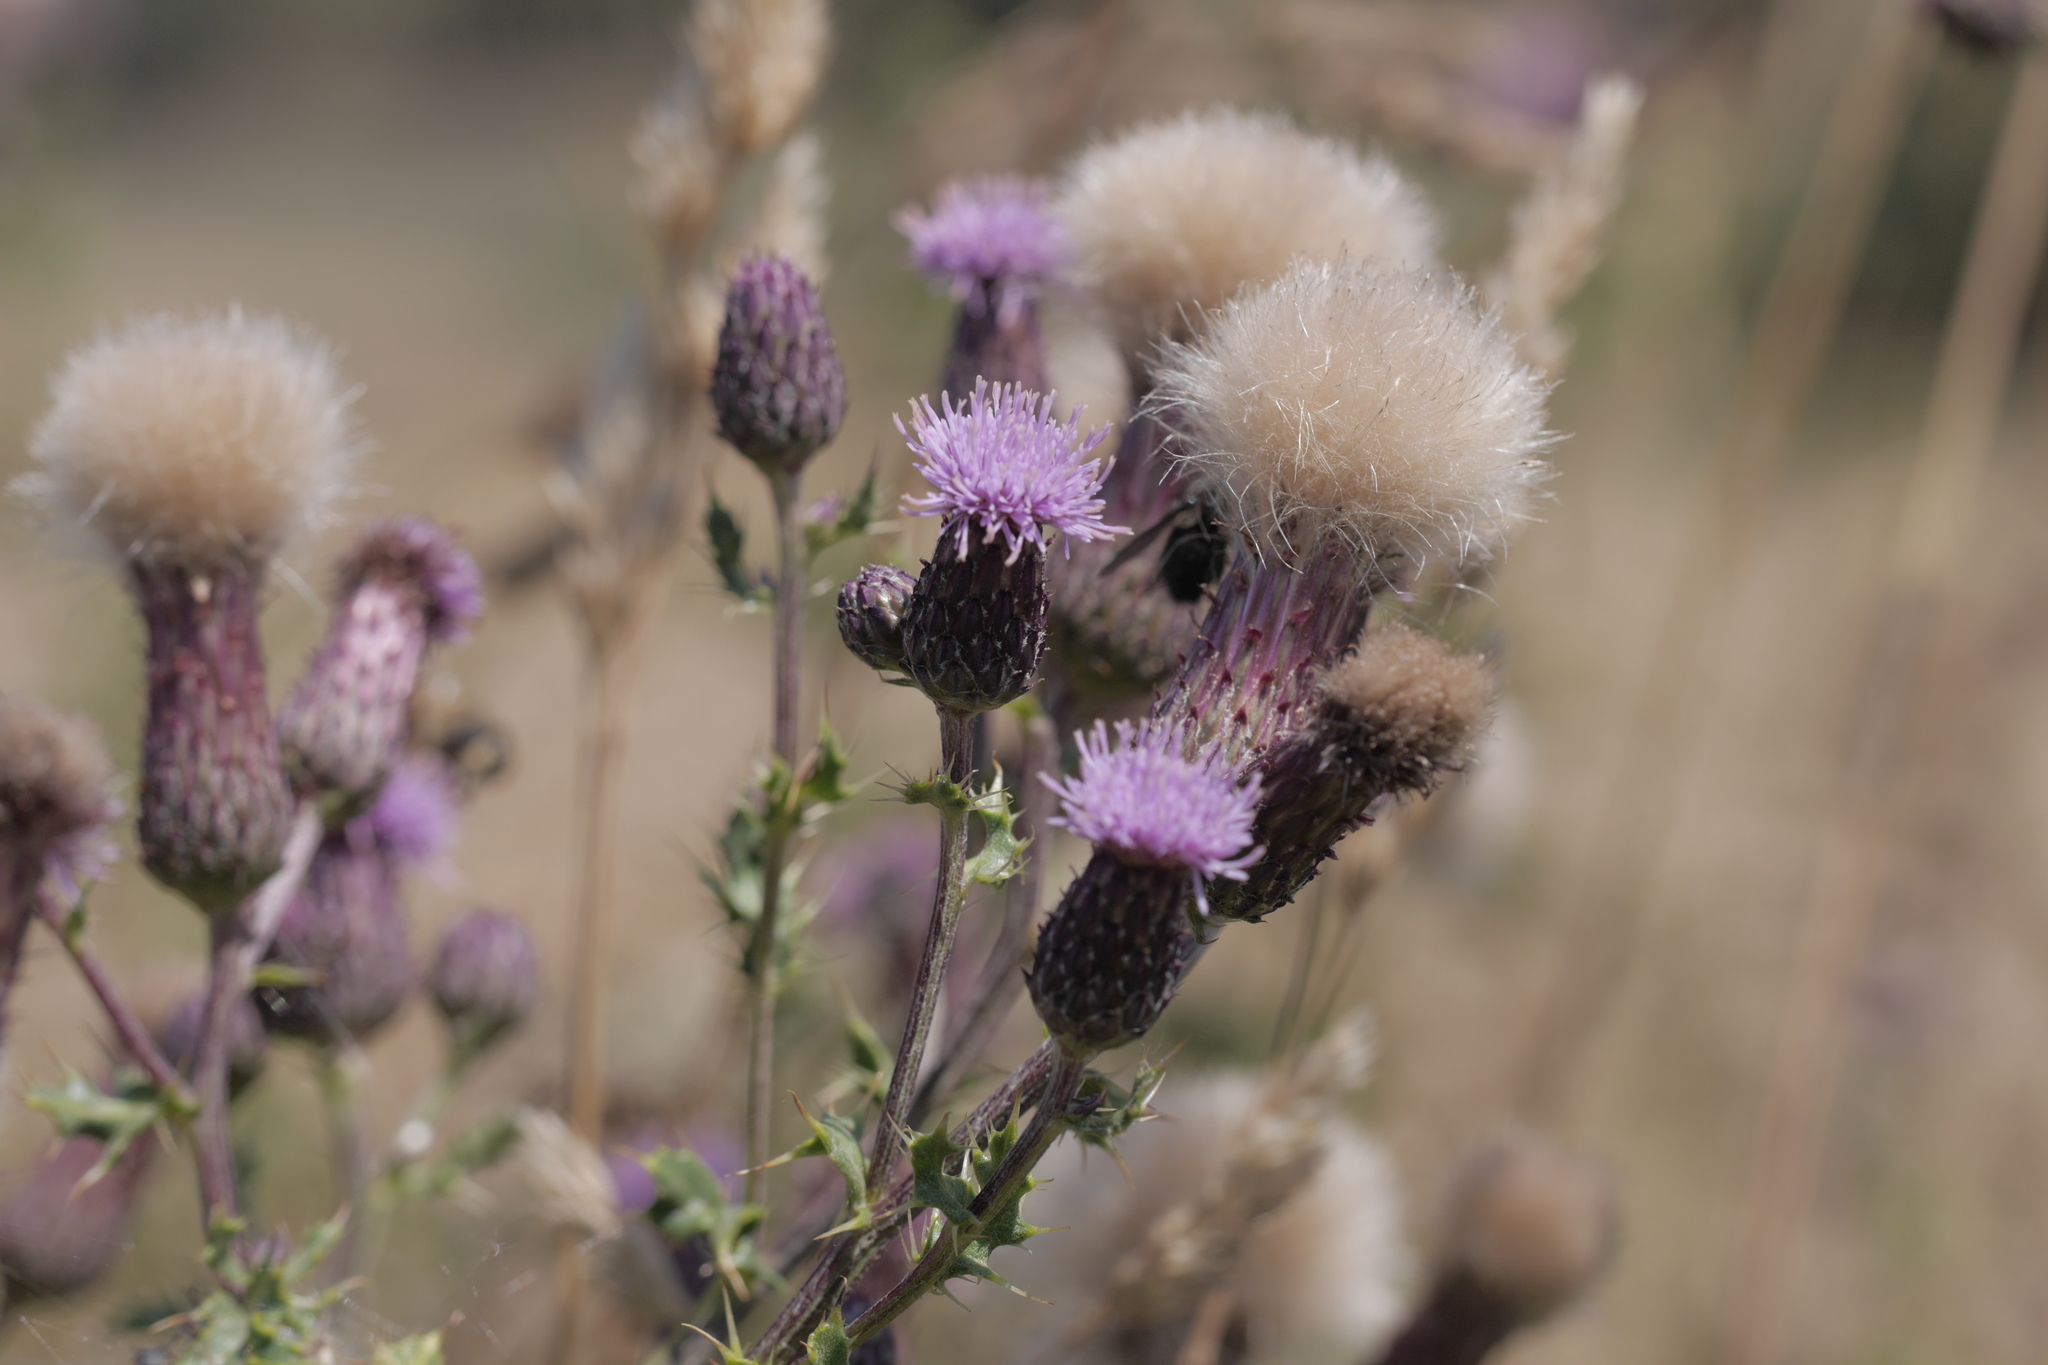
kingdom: Plantae
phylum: Tracheophyta
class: Magnoliopsida
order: Asterales
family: Asteraceae
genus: Cirsium
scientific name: Cirsium arvense
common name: Creeping thistle
